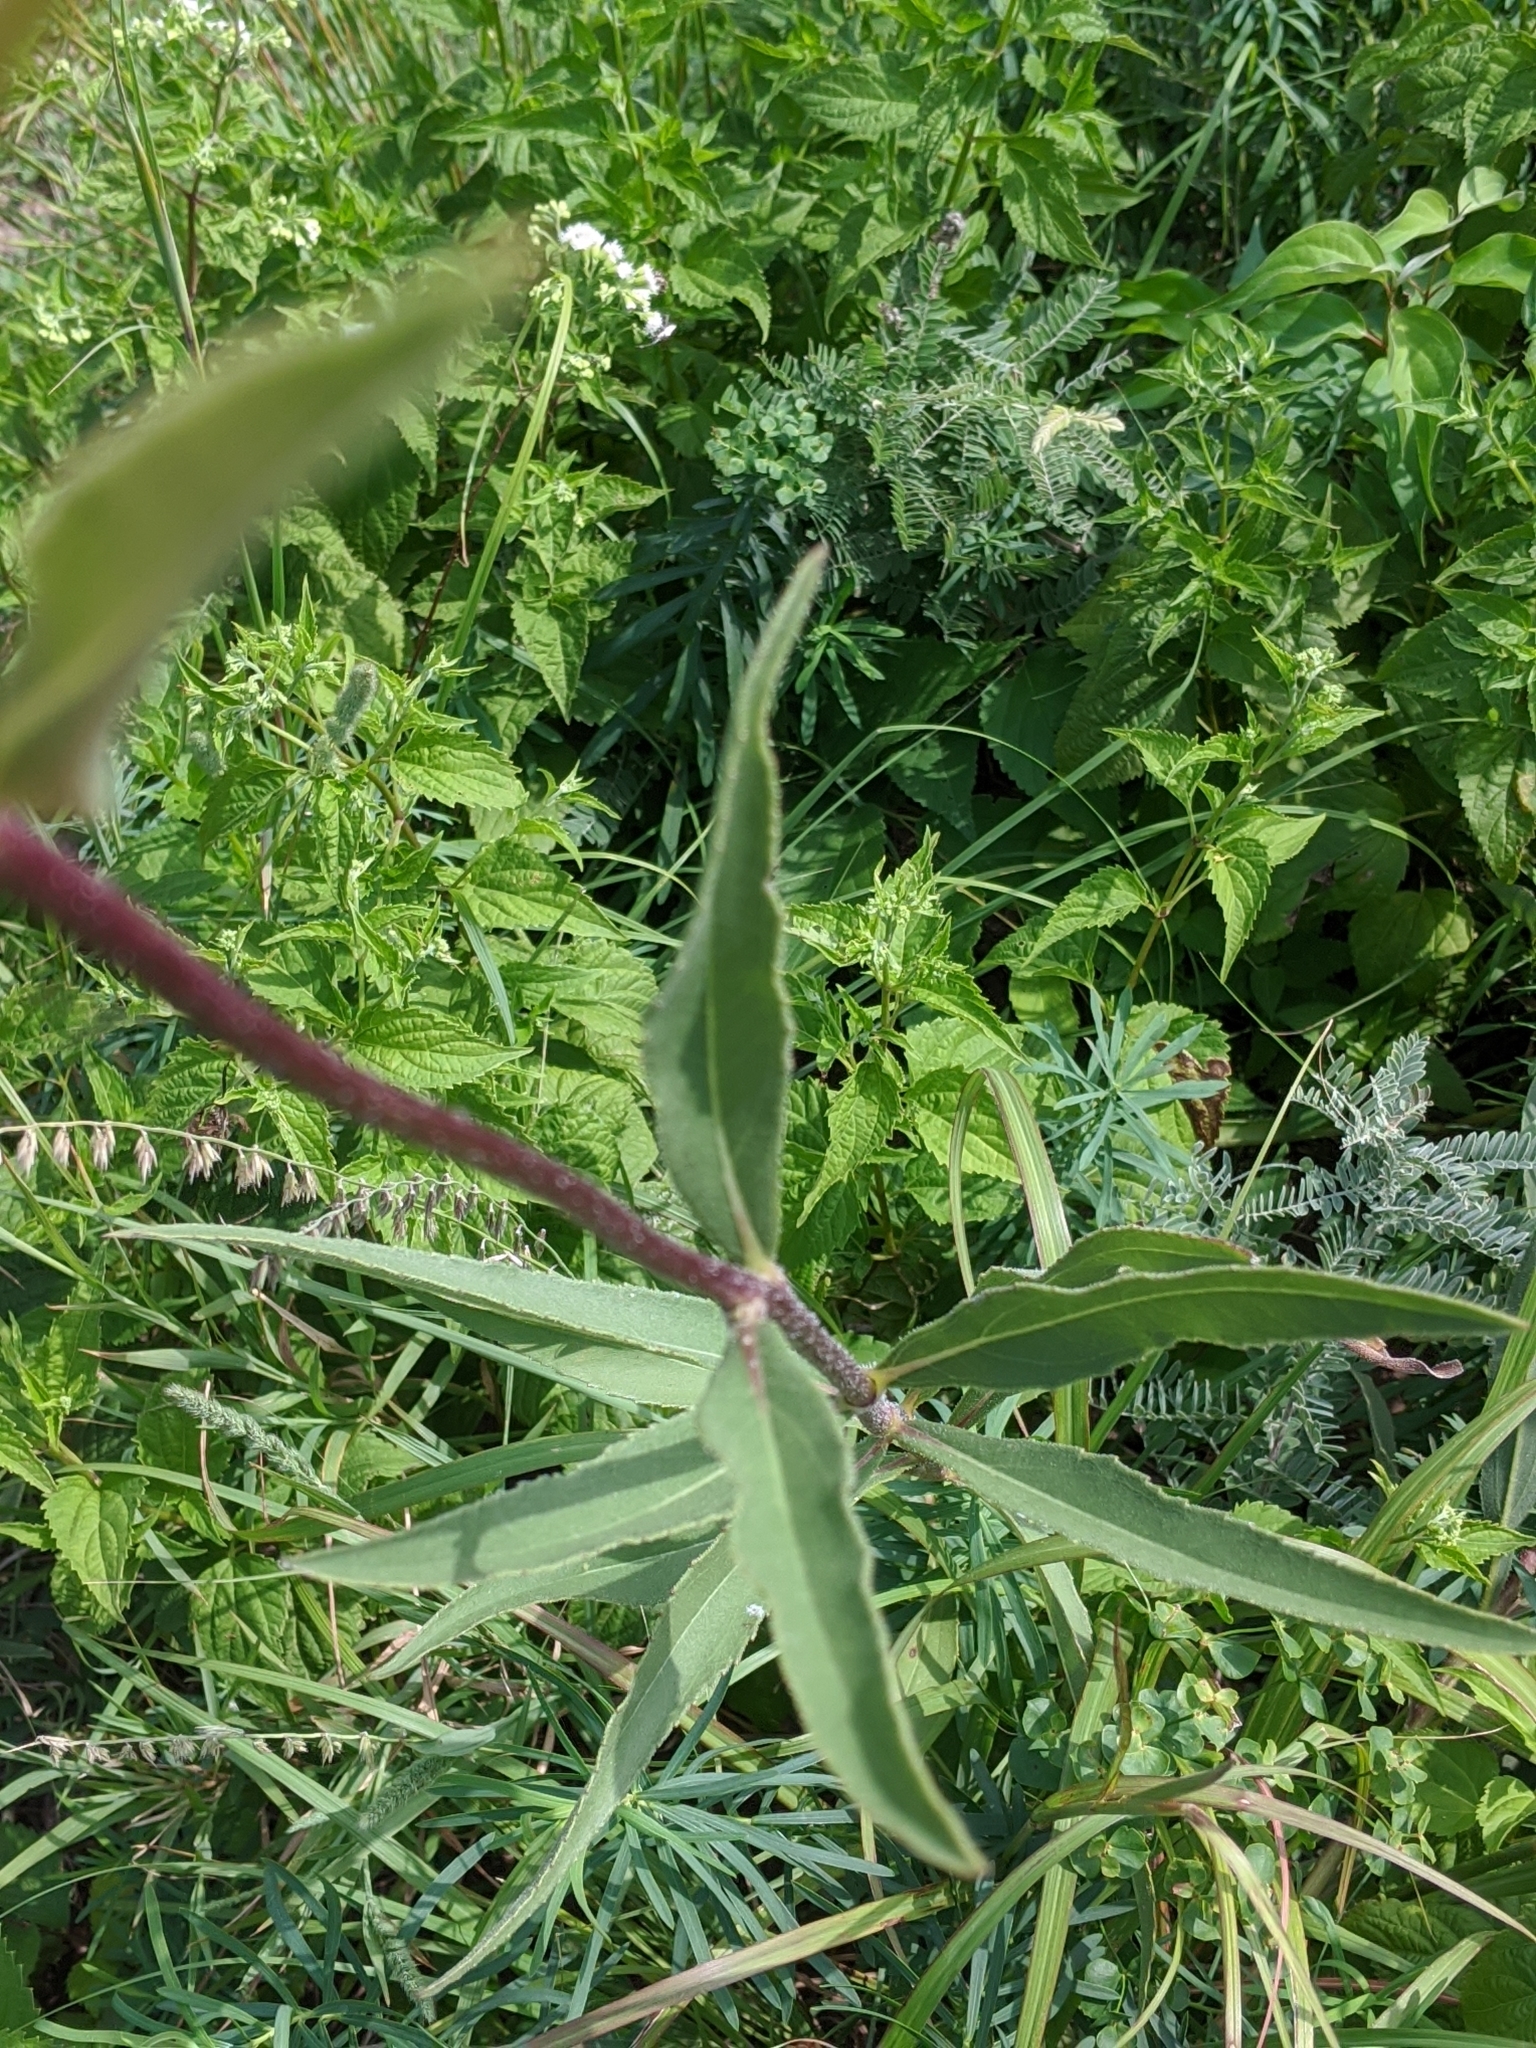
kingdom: Plantae
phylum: Tracheophyta
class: Magnoliopsida
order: Asterales
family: Asteraceae
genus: Helianthus
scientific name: Helianthus pauciflorus
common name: Stiff sunflower
